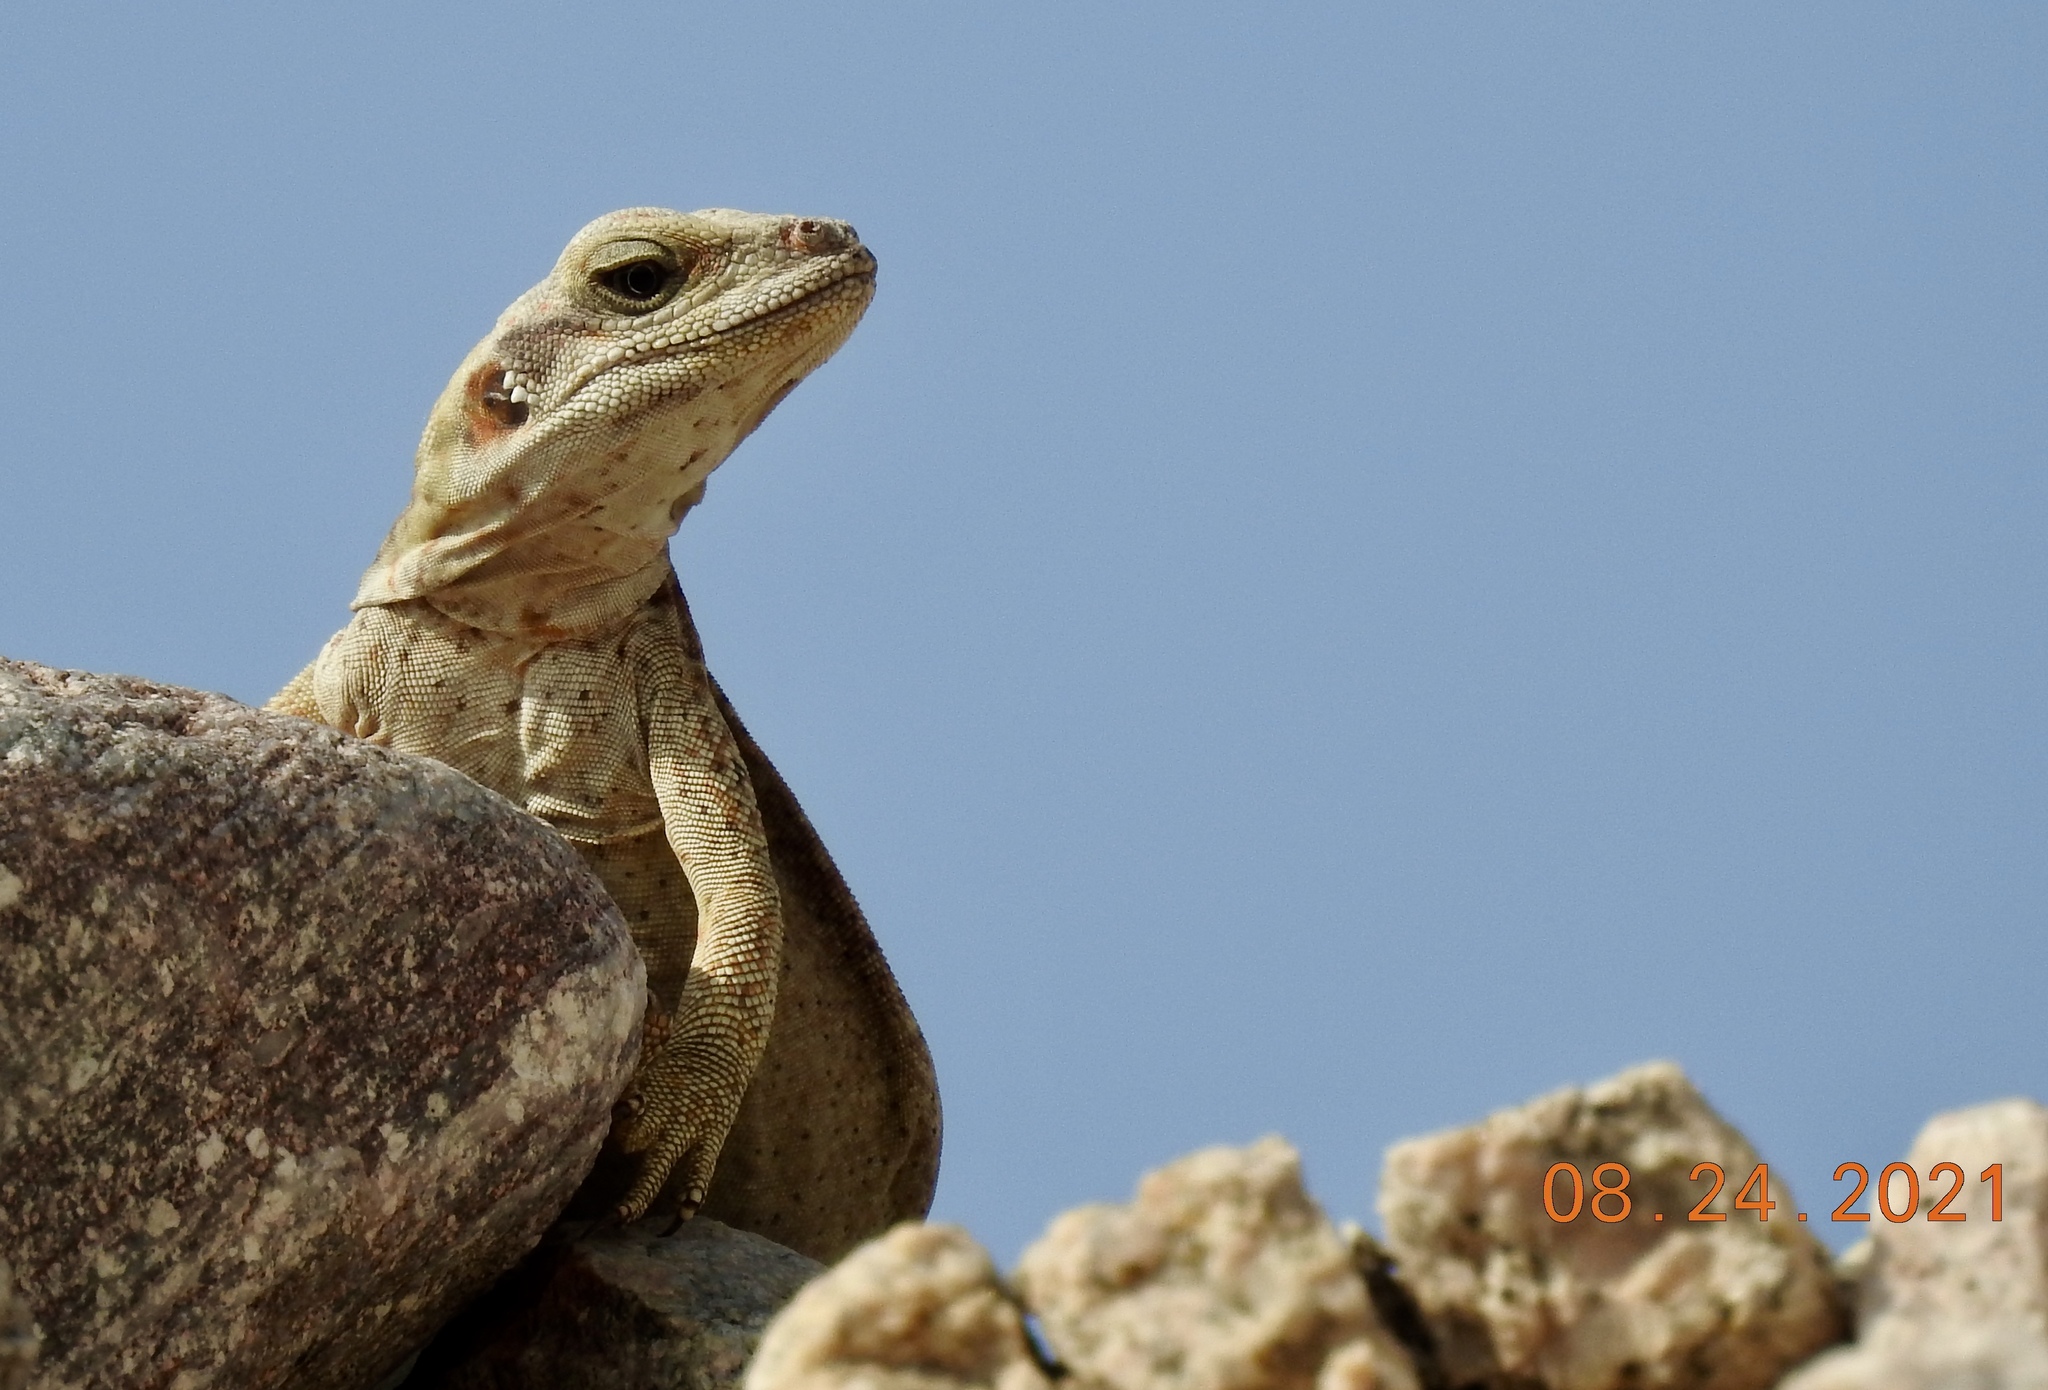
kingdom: Animalia
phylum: Chordata
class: Squamata
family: Iguanidae
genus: Sauromalus
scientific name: Sauromalus ater
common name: Northern chuckwalla
